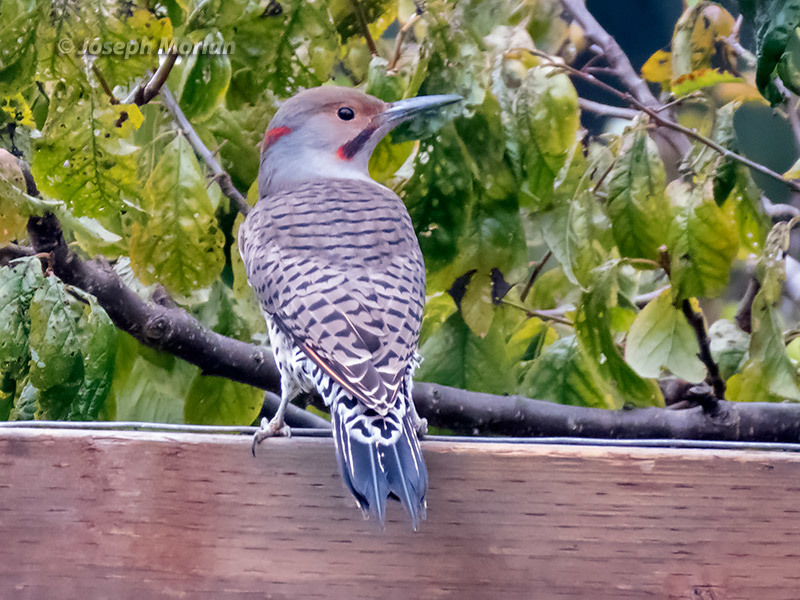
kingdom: Animalia
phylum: Chordata
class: Aves
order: Piciformes
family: Picidae
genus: Colaptes
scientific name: Colaptes auratus
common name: Northern flicker
